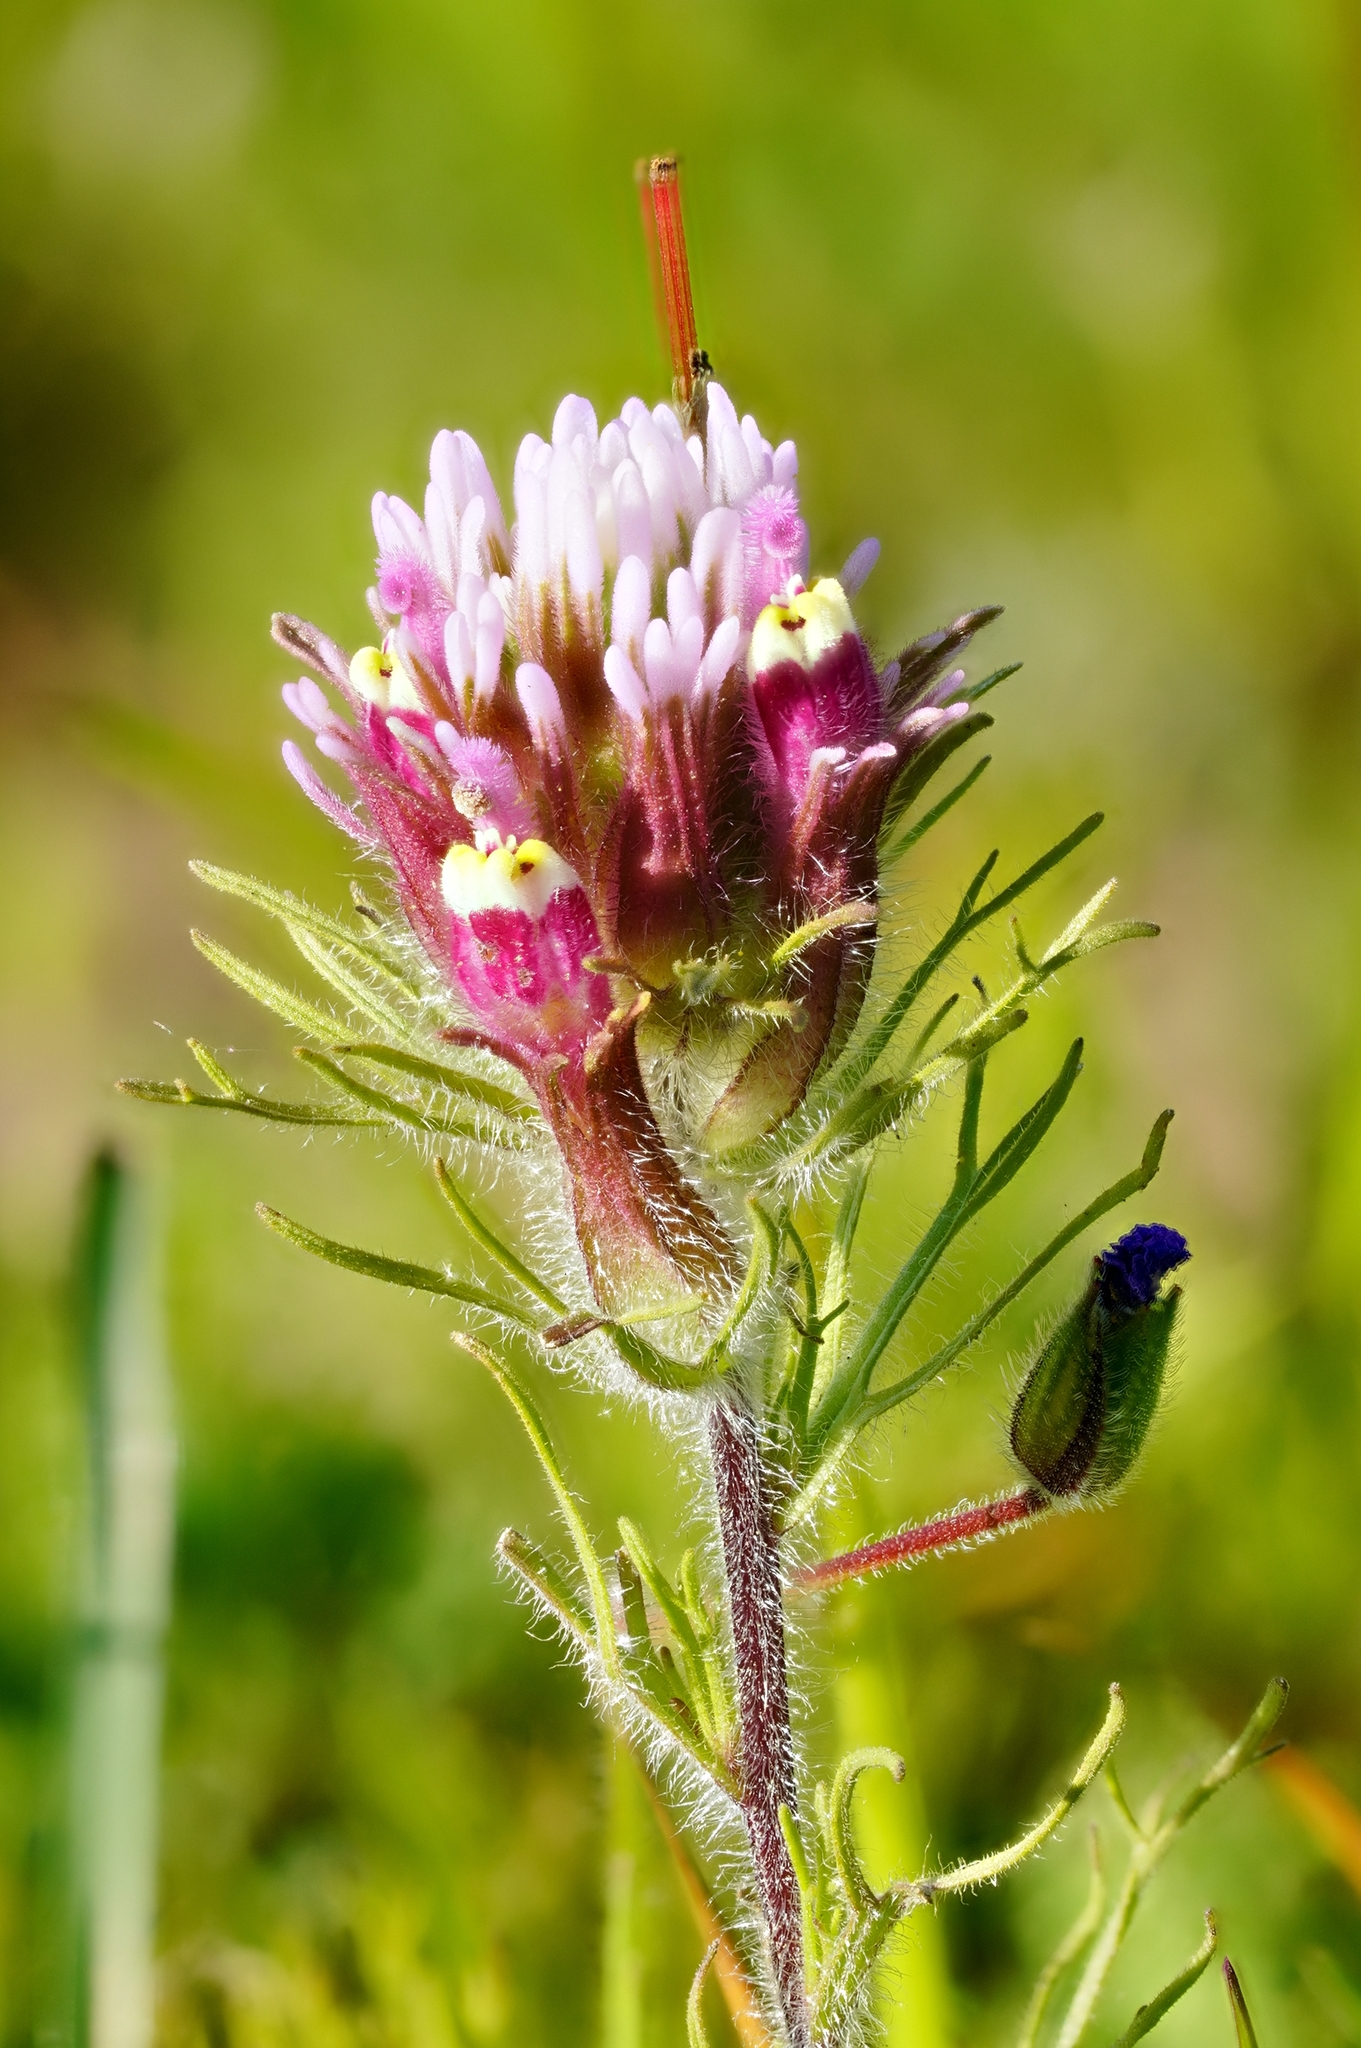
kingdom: Plantae
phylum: Tracheophyta
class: Magnoliopsida
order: Lamiales
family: Orobanchaceae
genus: Castilleja
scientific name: Castilleja exserta
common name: Purple owl-clover
